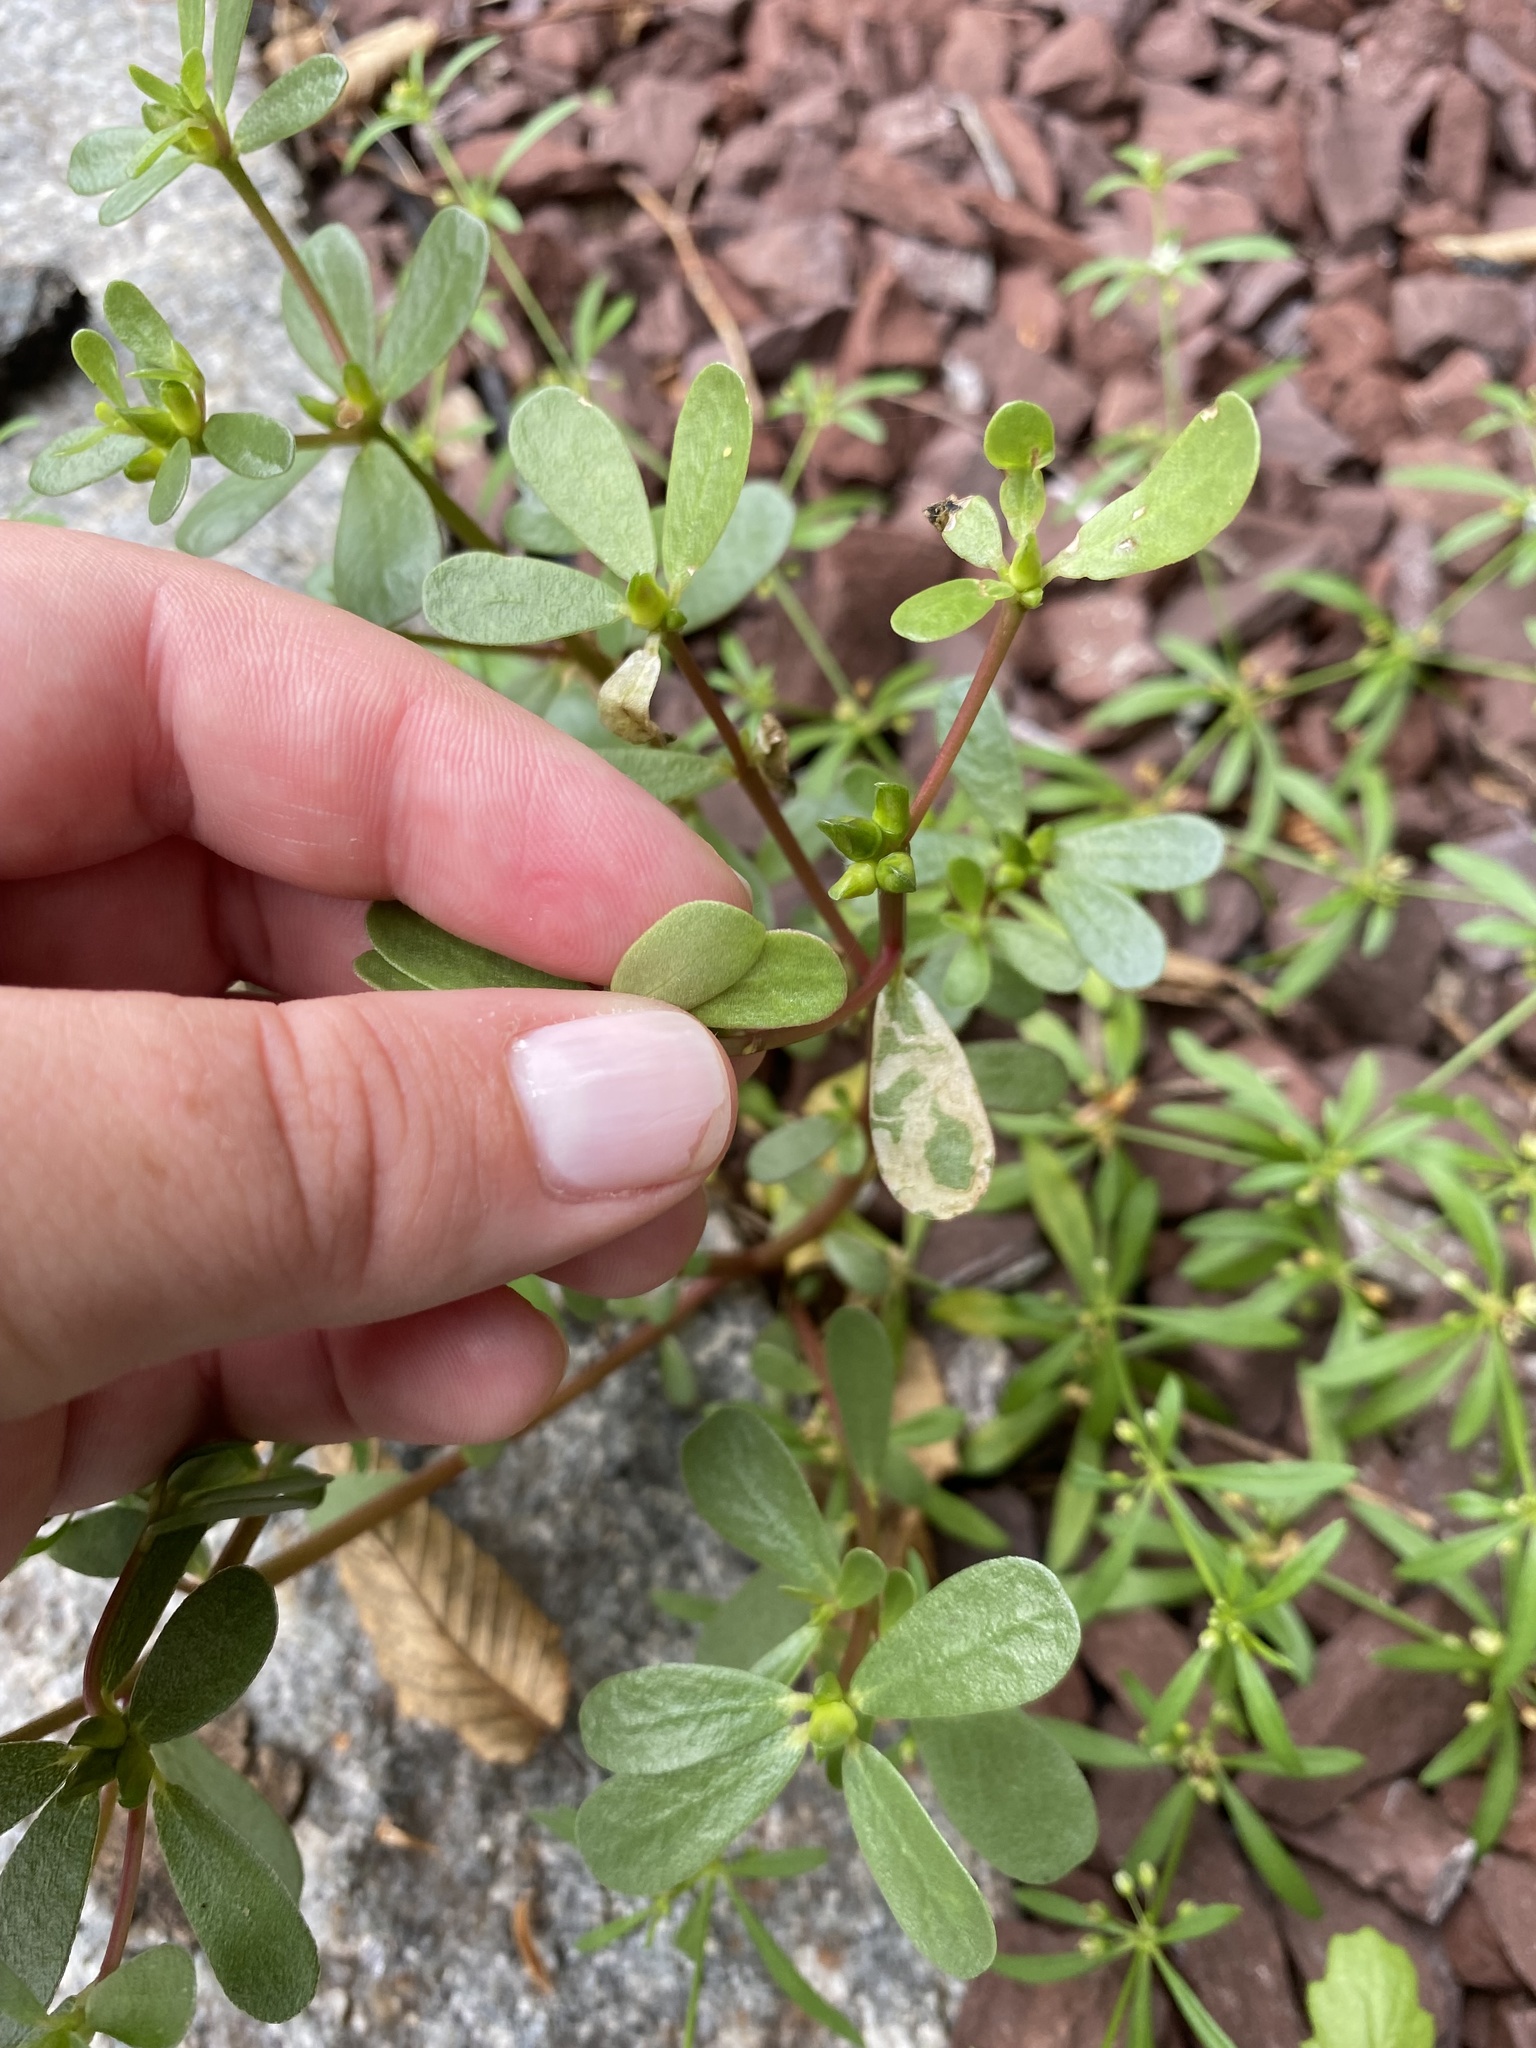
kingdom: Animalia
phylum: Arthropoda
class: Insecta
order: Diptera
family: Anthomyiidae
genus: Pegomya
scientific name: Pegomya rufescens
